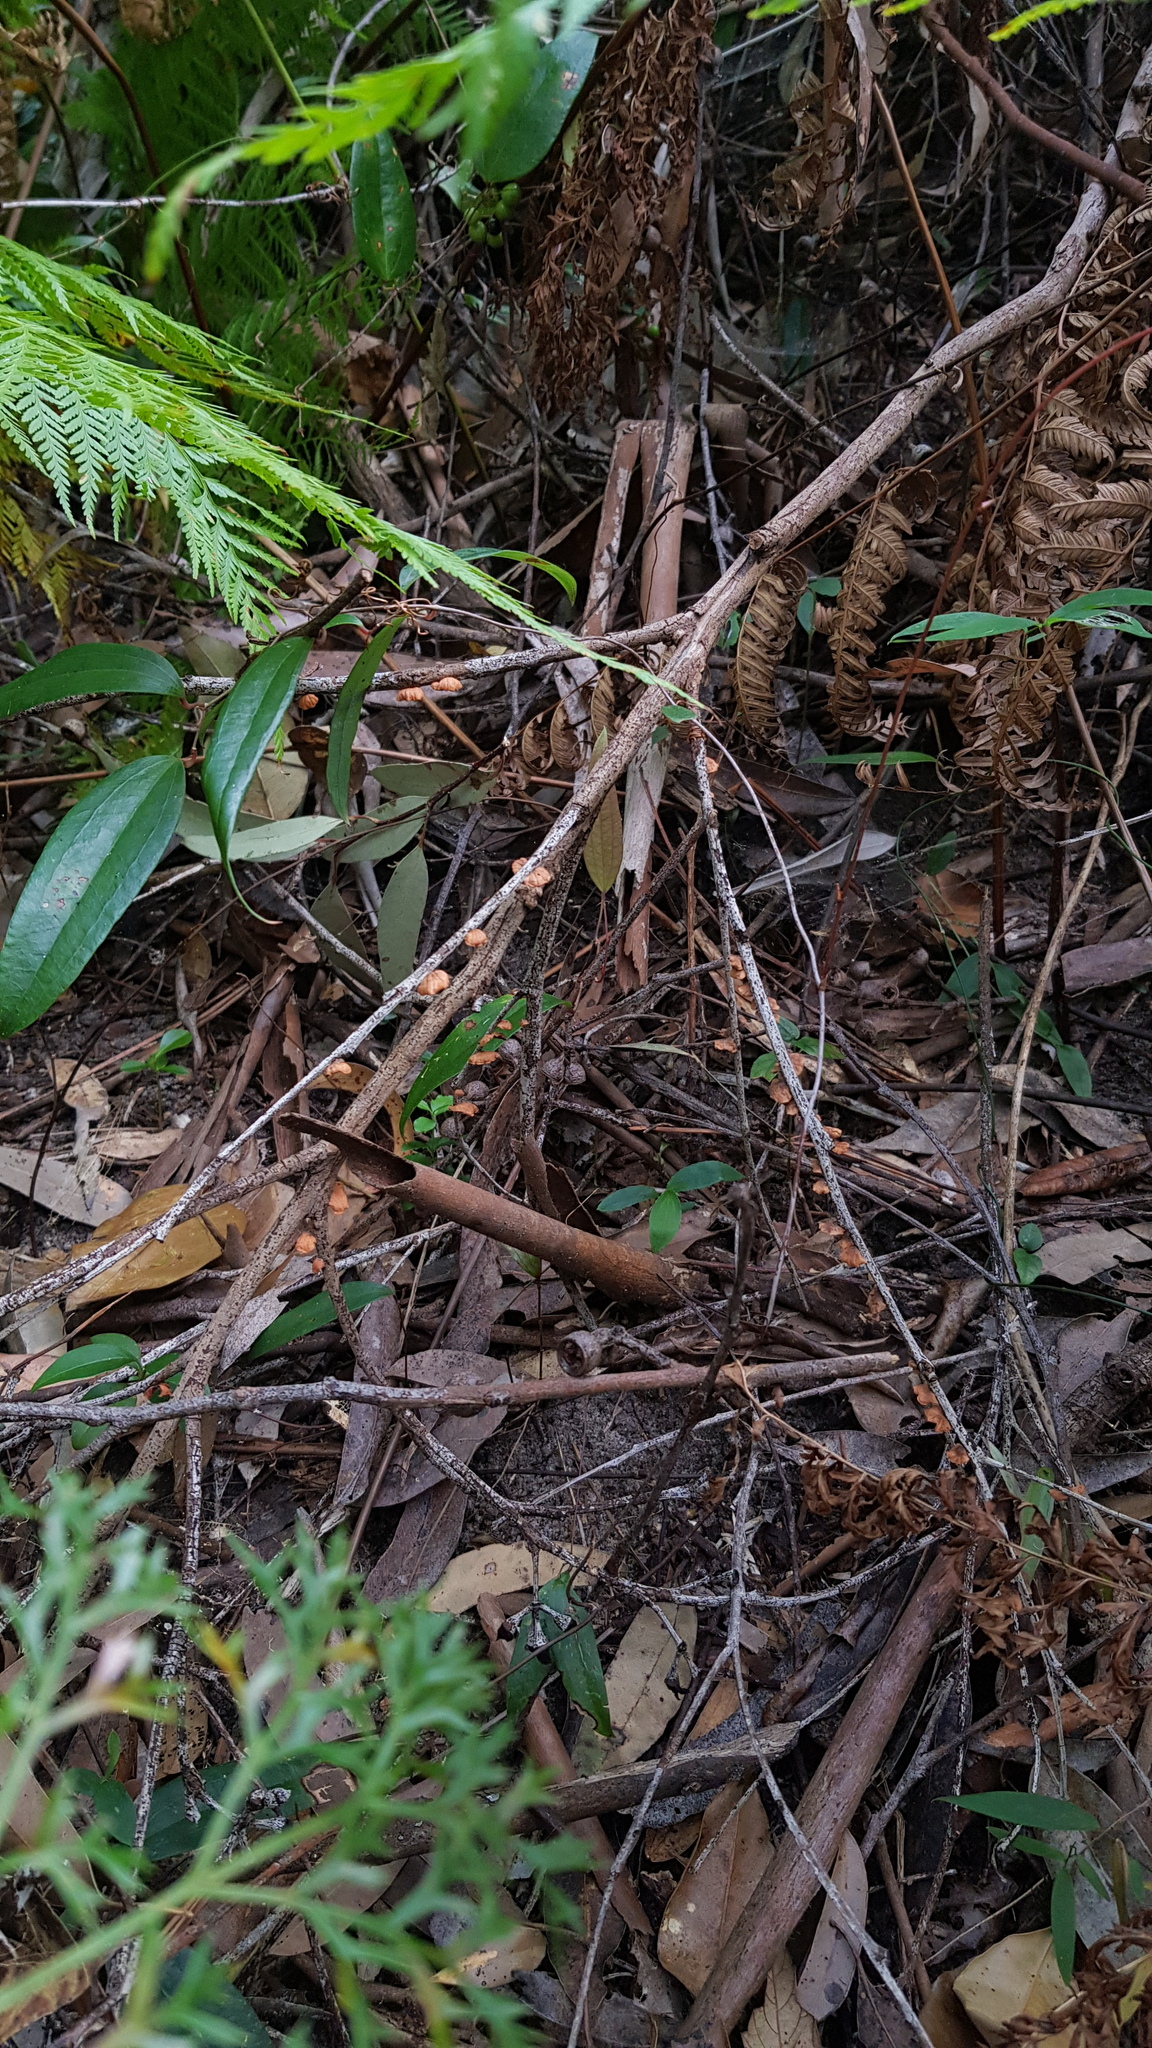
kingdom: Fungi
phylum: Basidiomycota
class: Agaricomycetes
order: Agaricales
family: Omphalotaceae
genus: Anthracophyllum
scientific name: Anthracophyllum archeri
